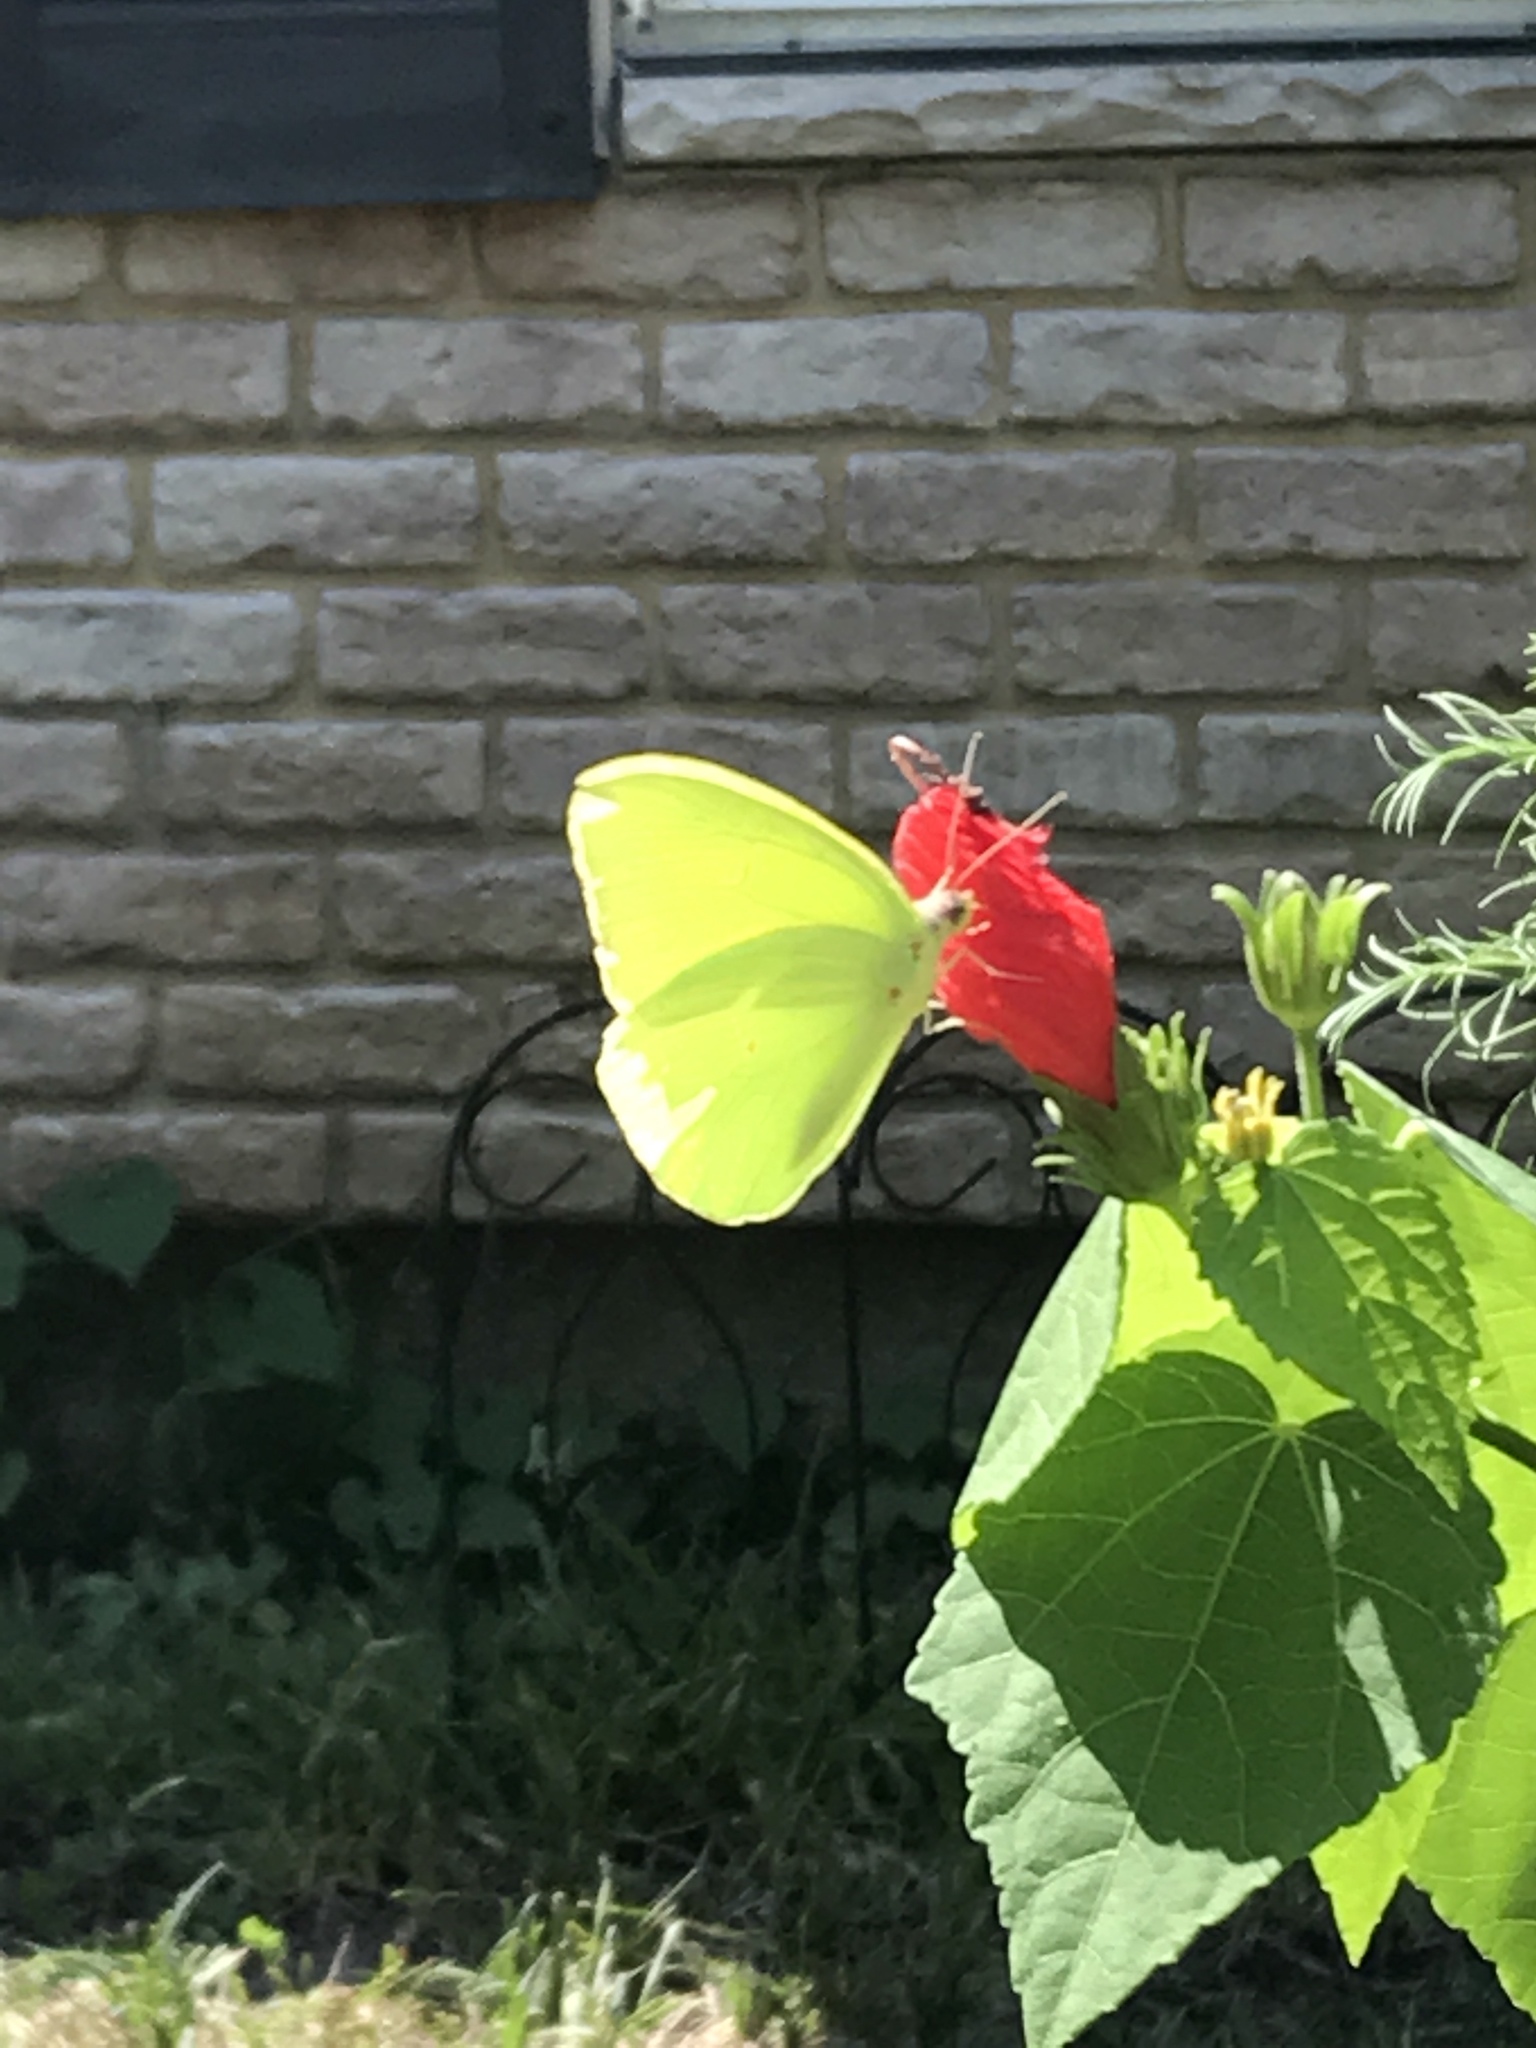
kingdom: Animalia
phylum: Arthropoda
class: Insecta
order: Lepidoptera
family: Pieridae
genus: Phoebis
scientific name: Phoebis sennae
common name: Cloudless sulphur
